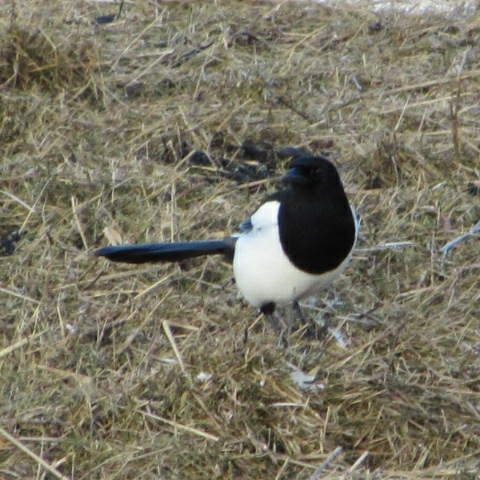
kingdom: Animalia
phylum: Chordata
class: Aves
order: Passeriformes
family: Corvidae
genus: Pica
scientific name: Pica pica
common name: Eurasian magpie
